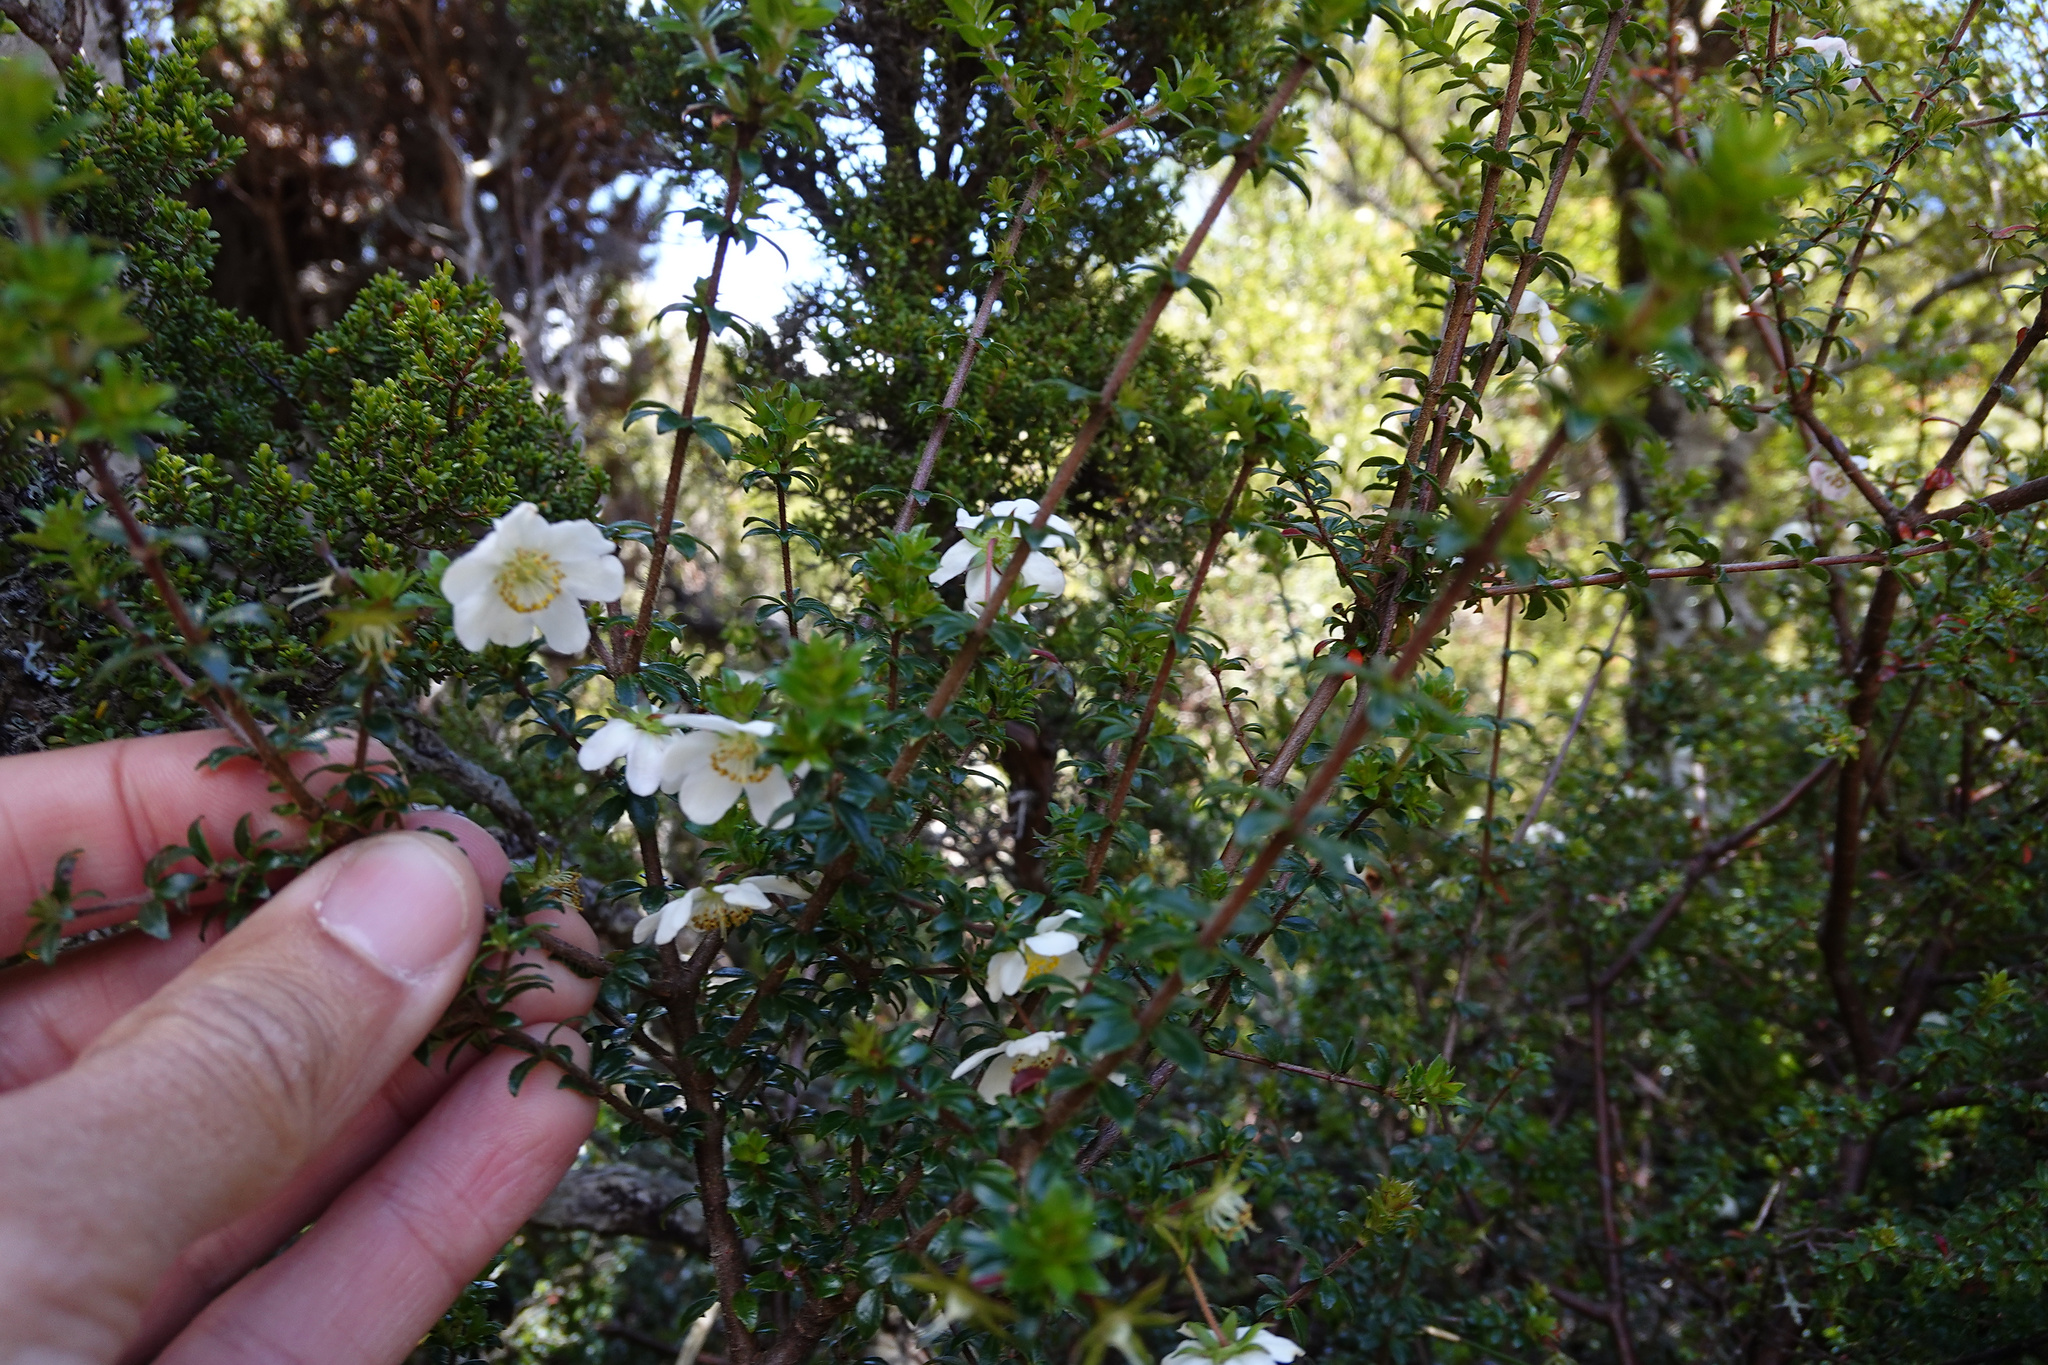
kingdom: Plantae
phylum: Tracheophyta
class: Magnoliopsida
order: Oxalidales
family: Cunoniaceae
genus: Bauera
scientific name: Bauera rubioides
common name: River-rose
